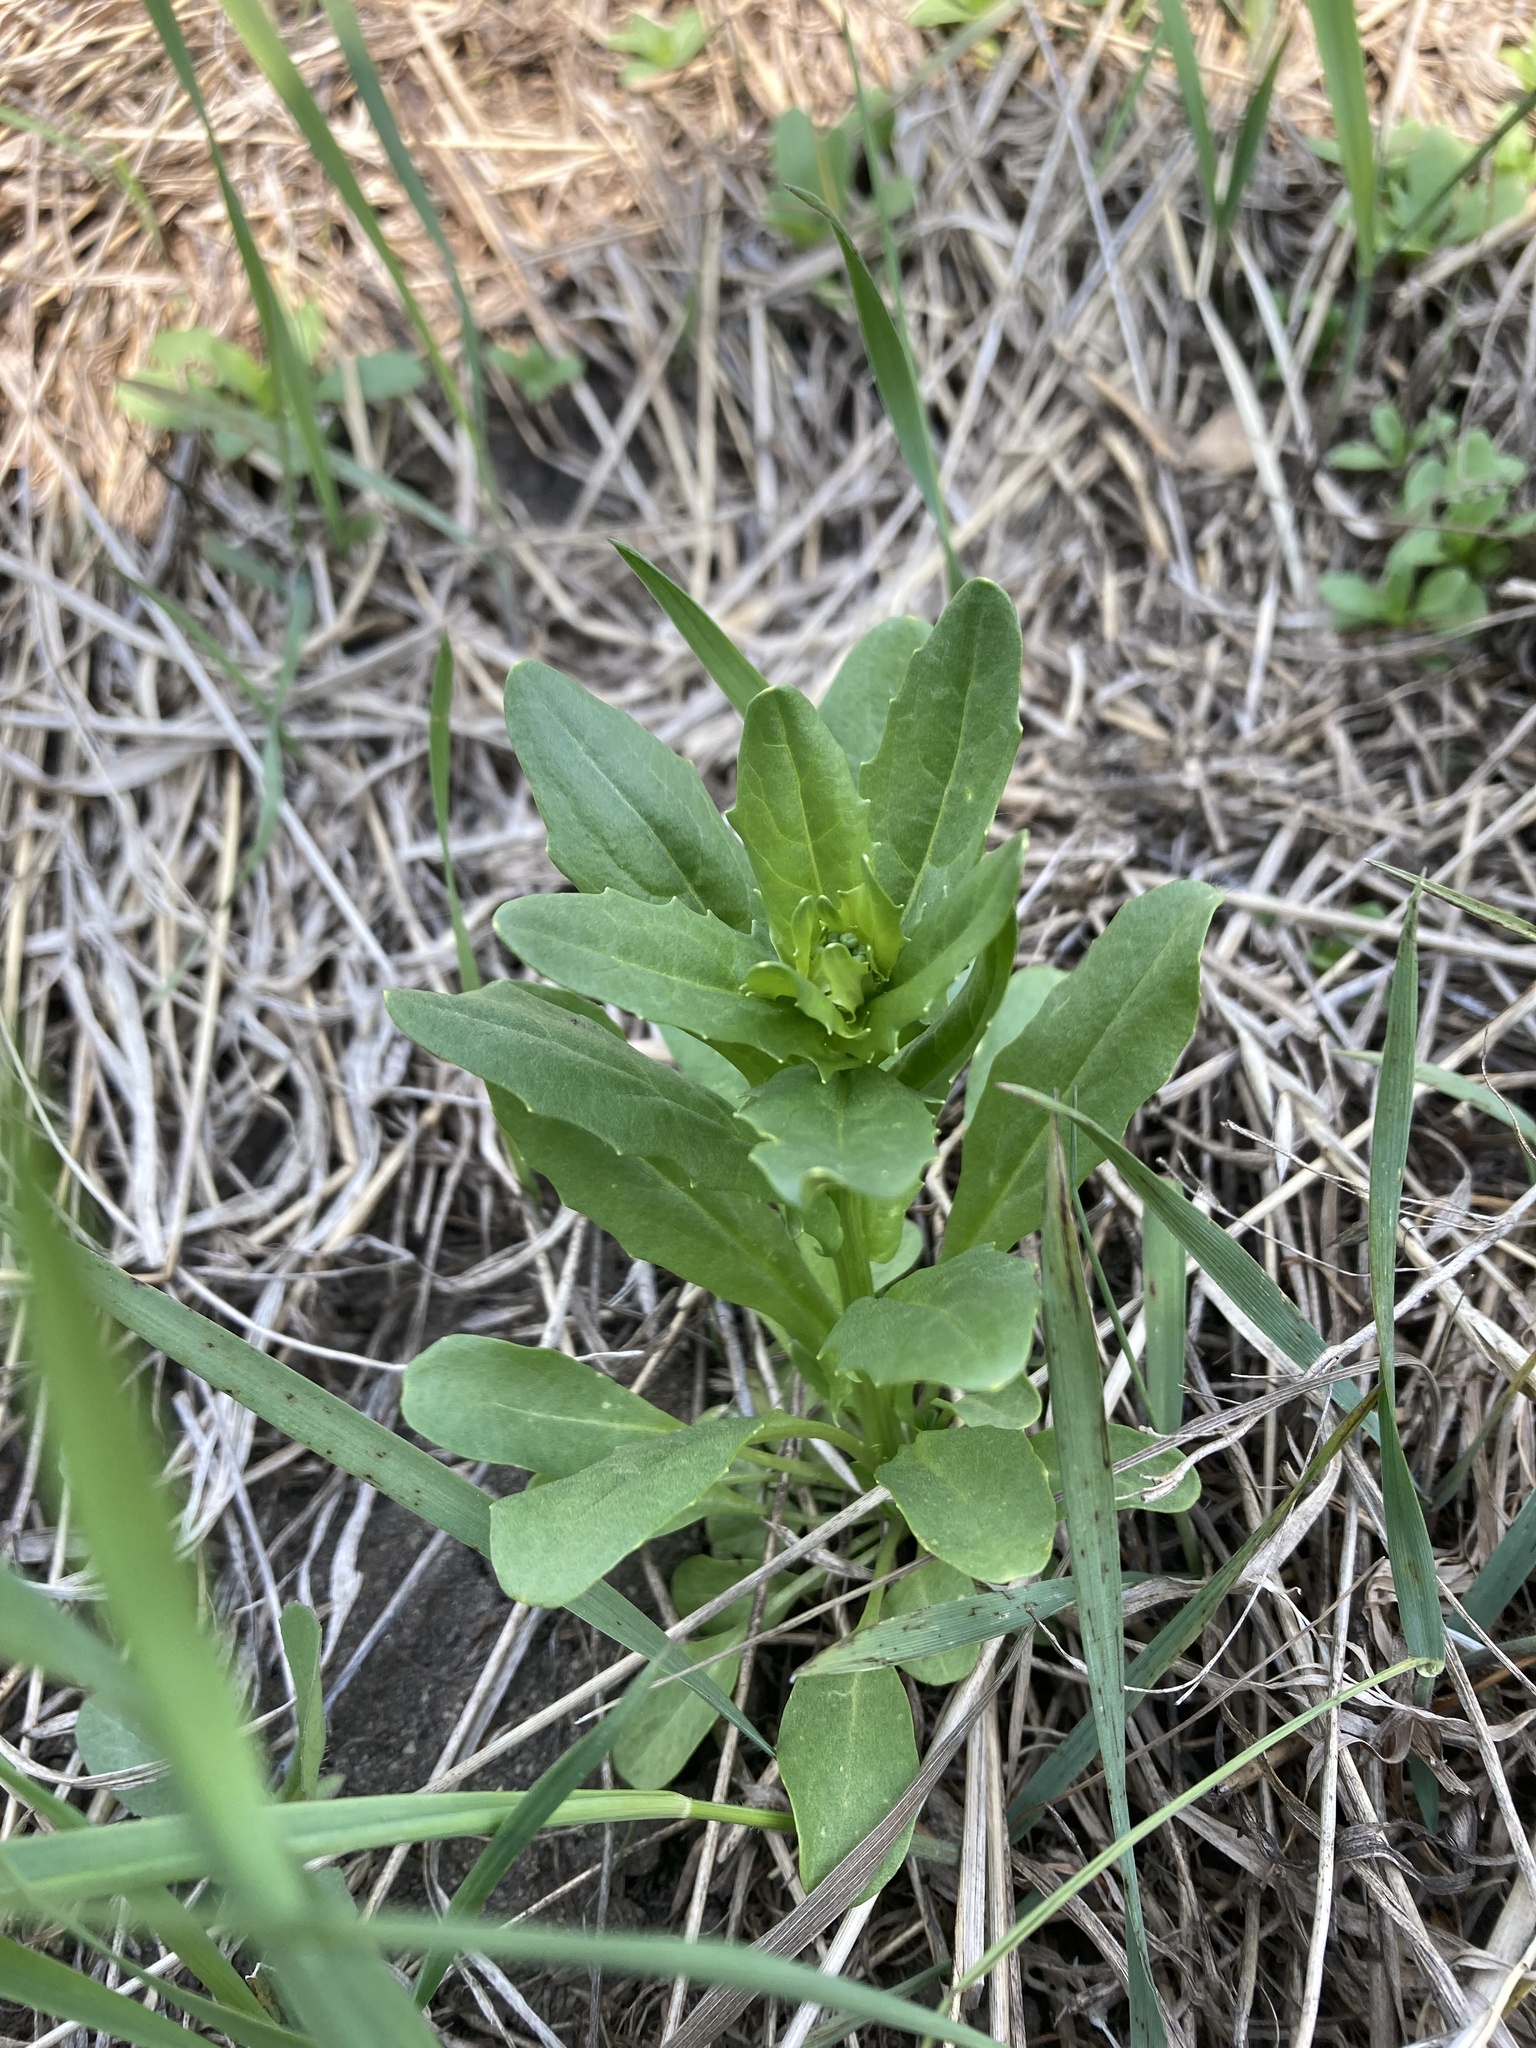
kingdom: Plantae
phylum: Tracheophyta
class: Magnoliopsida
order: Brassicales
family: Brassicaceae
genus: Thlaspi
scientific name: Thlaspi arvense
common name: Field pennycress
